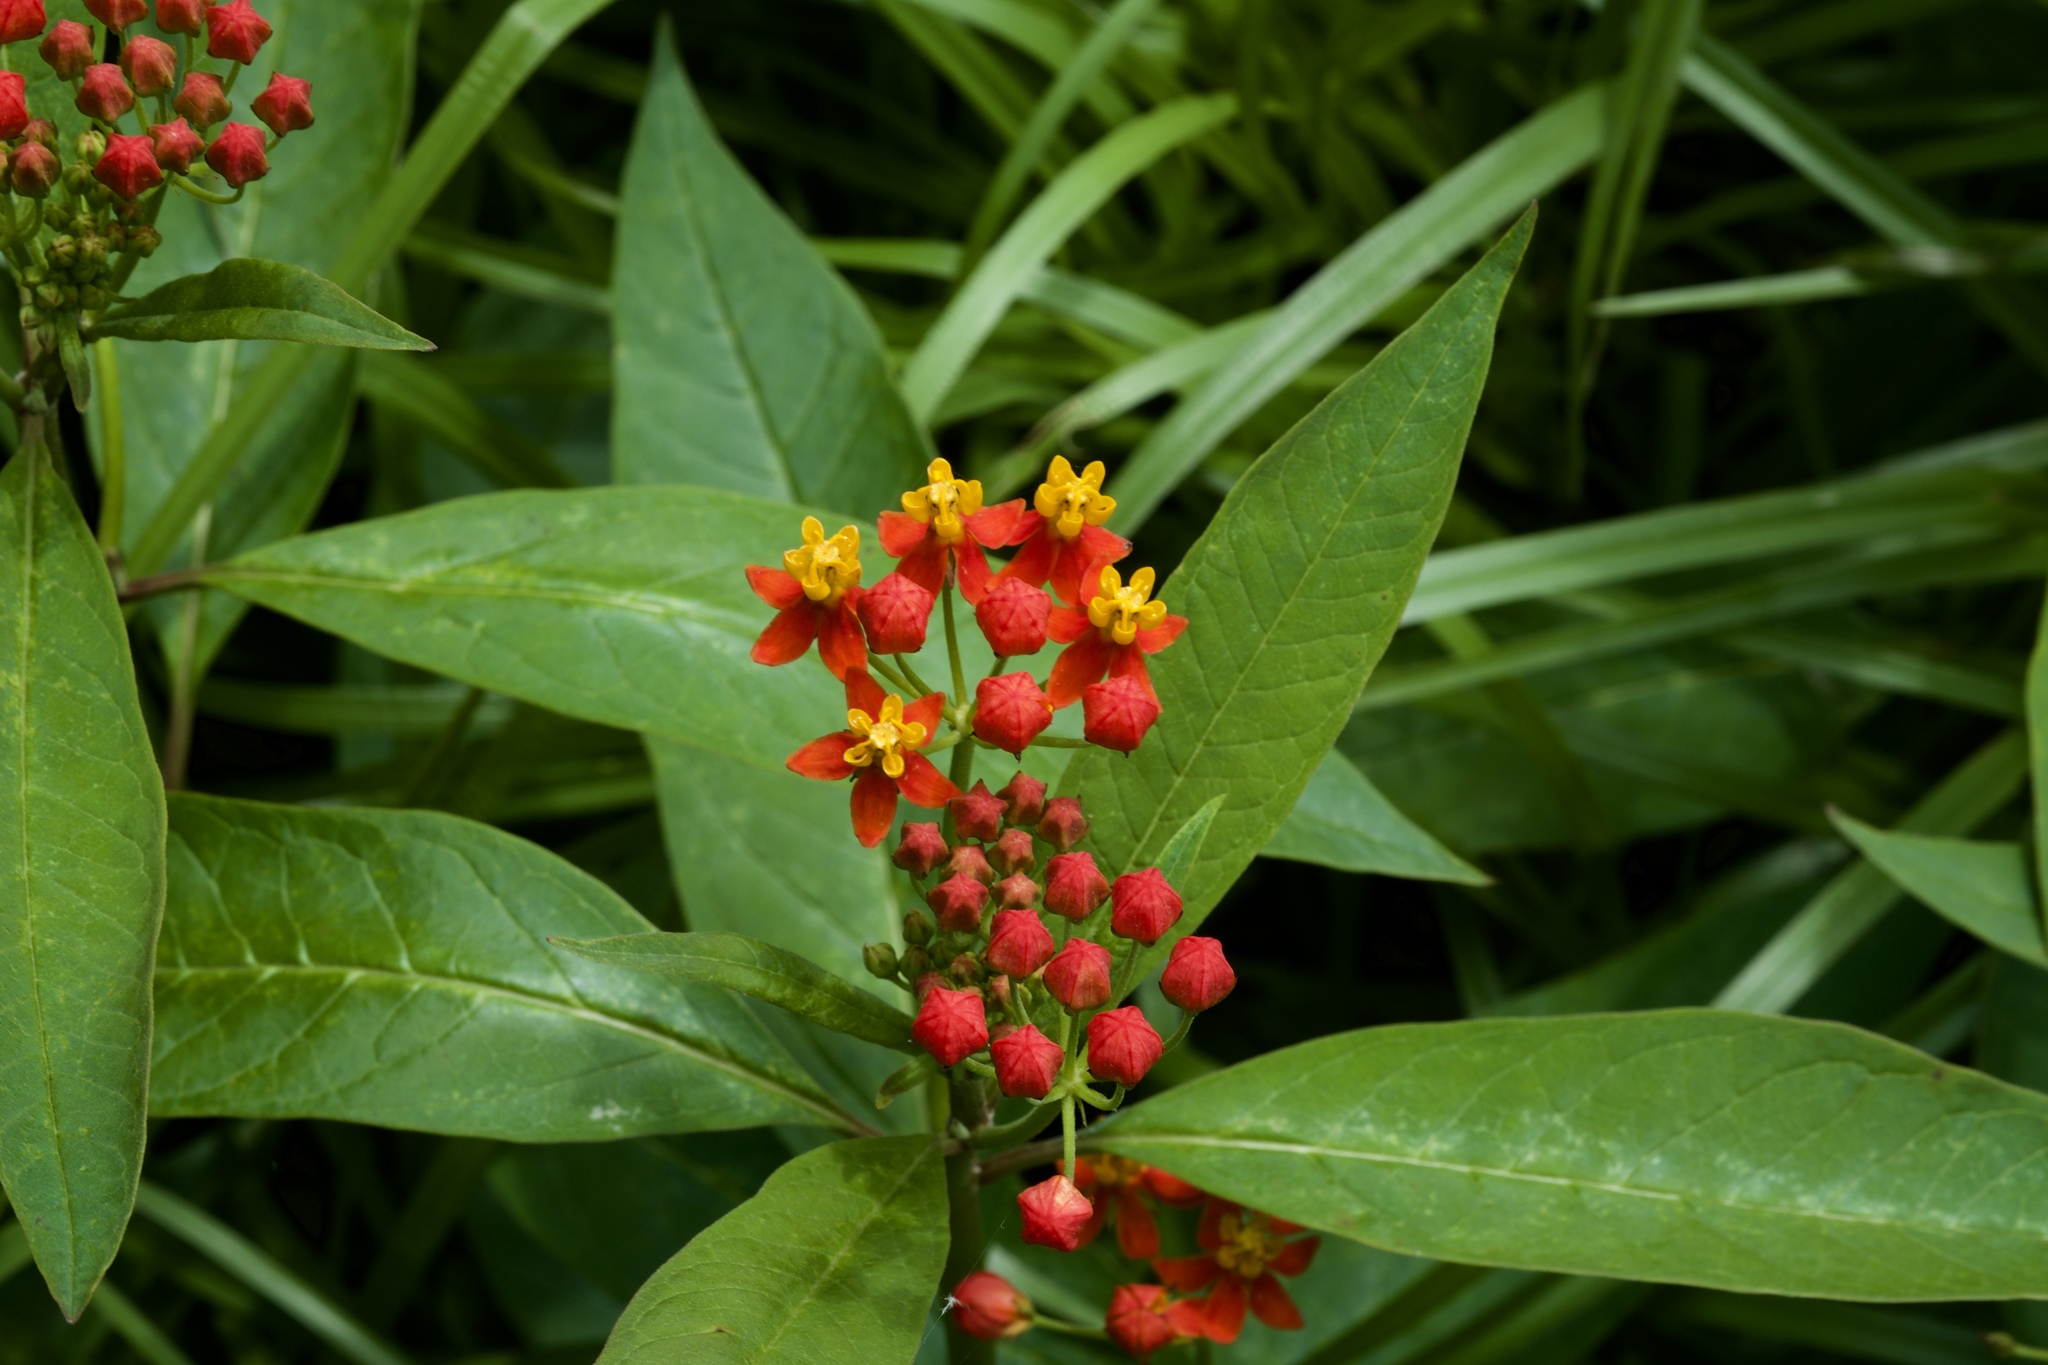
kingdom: Plantae
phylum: Tracheophyta
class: Magnoliopsida
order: Gentianales
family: Apocynaceae
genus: Asclepias
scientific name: Asclepias curassavica
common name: Bloodflower
